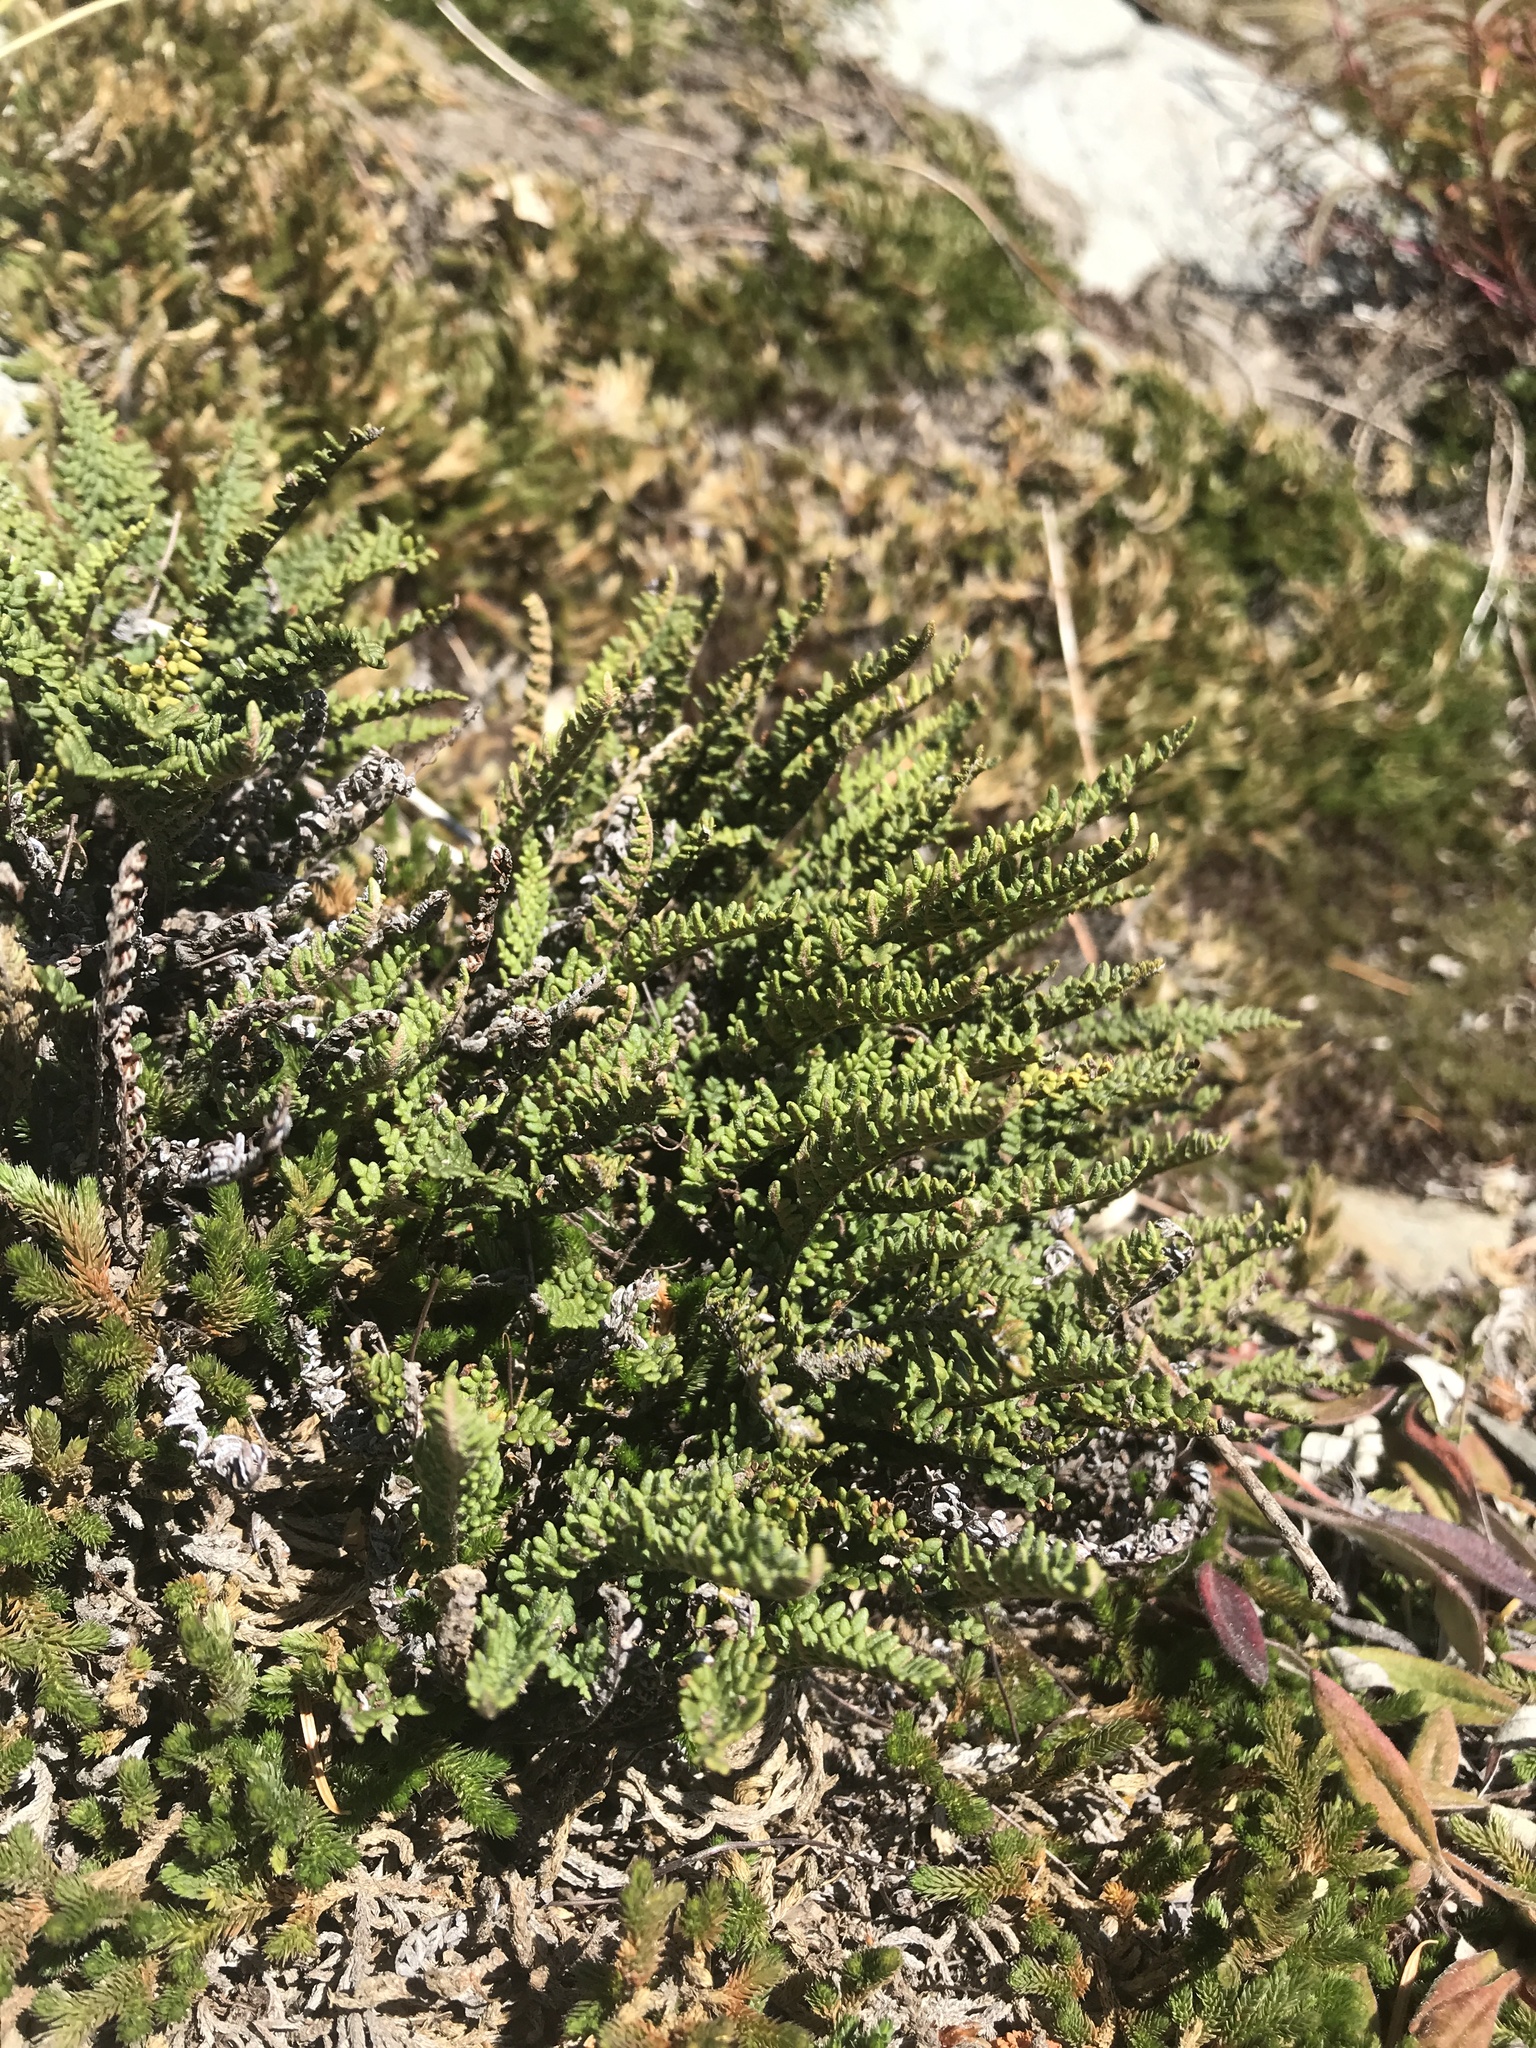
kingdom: Plantae
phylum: Tracheophyta
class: Polypodiopsida
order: Polypodiales
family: Pteridaceae
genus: Myriopteris
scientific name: Myriopteris gracillima
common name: Lace fern
